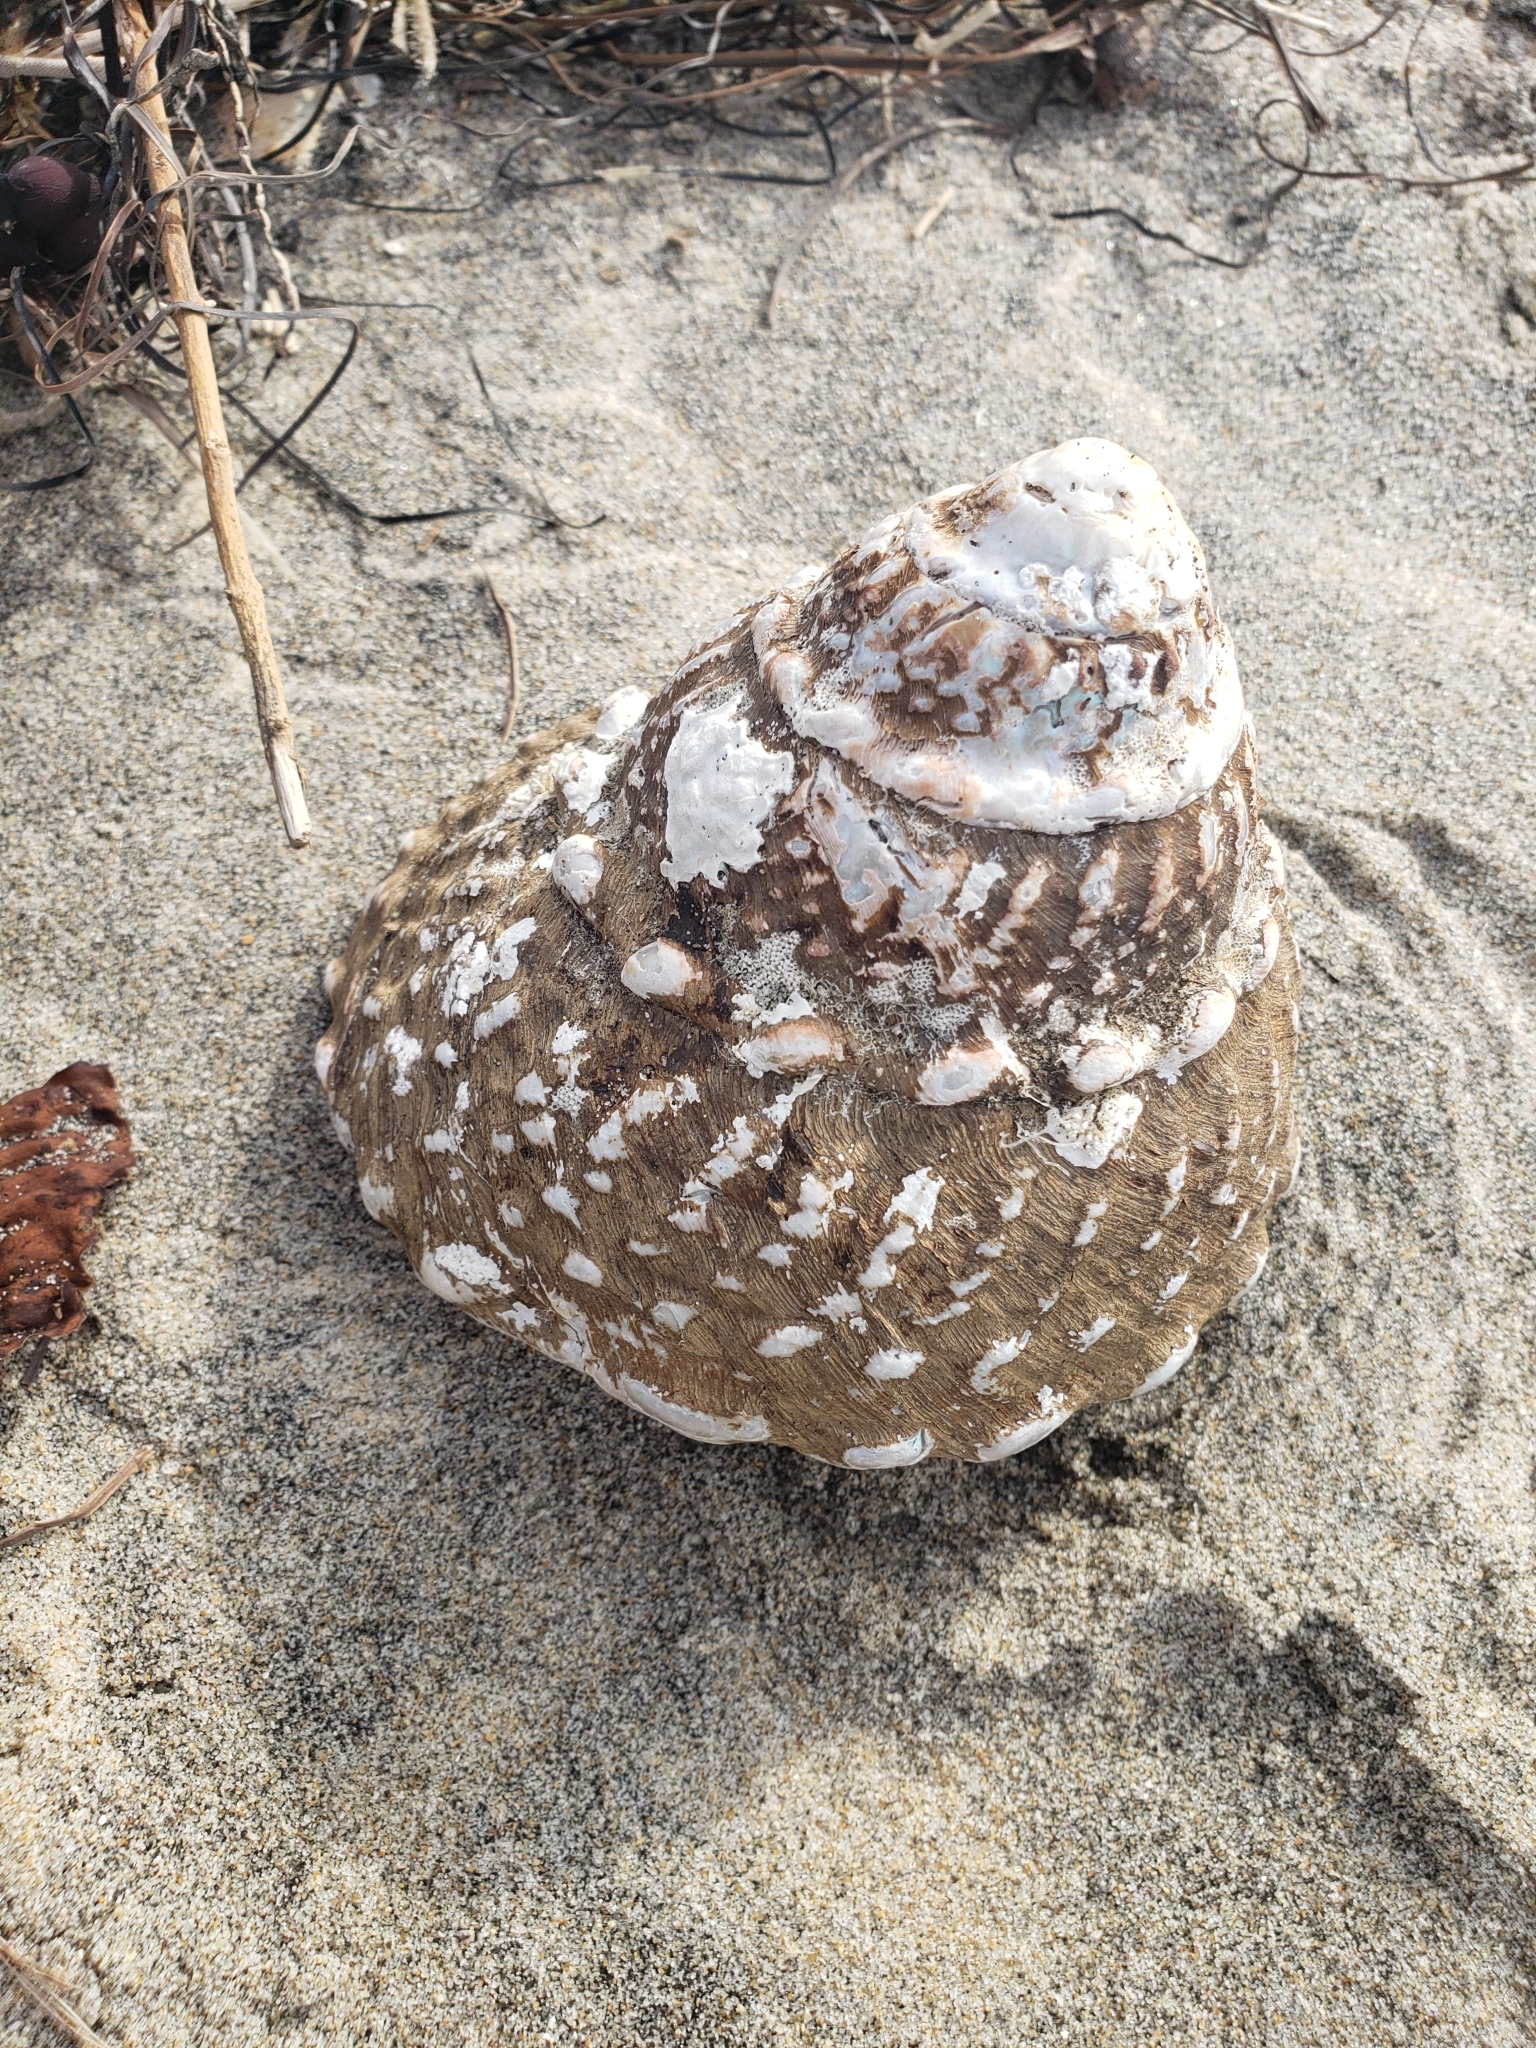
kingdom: Animalia
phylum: Mollusca
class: Gastropoda
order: Trochida
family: Turbinidae
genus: Megastraea
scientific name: Megastraea undosa
